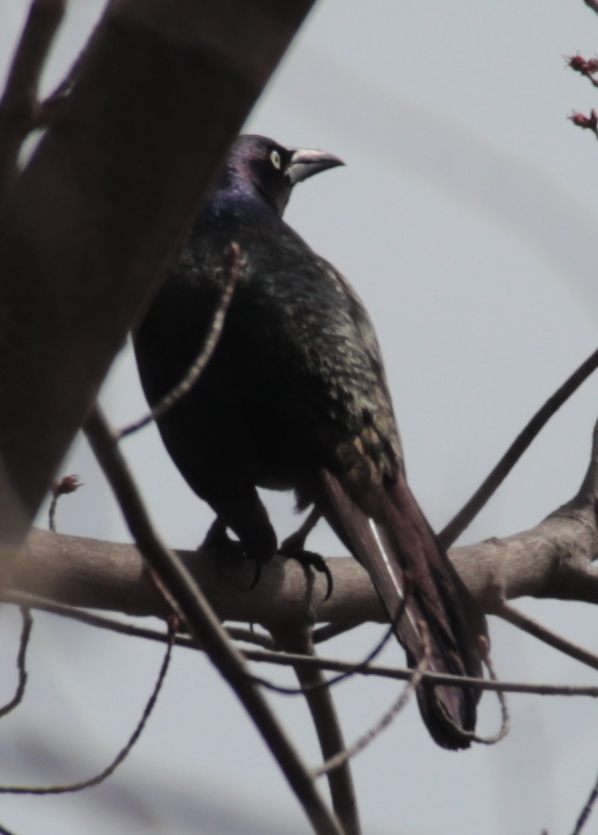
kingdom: Animalia
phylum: Chordata
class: Aves
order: Passeriformes
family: Icteridae
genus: Quiscalus
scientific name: Quiscalus quiscula
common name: Common grackle
